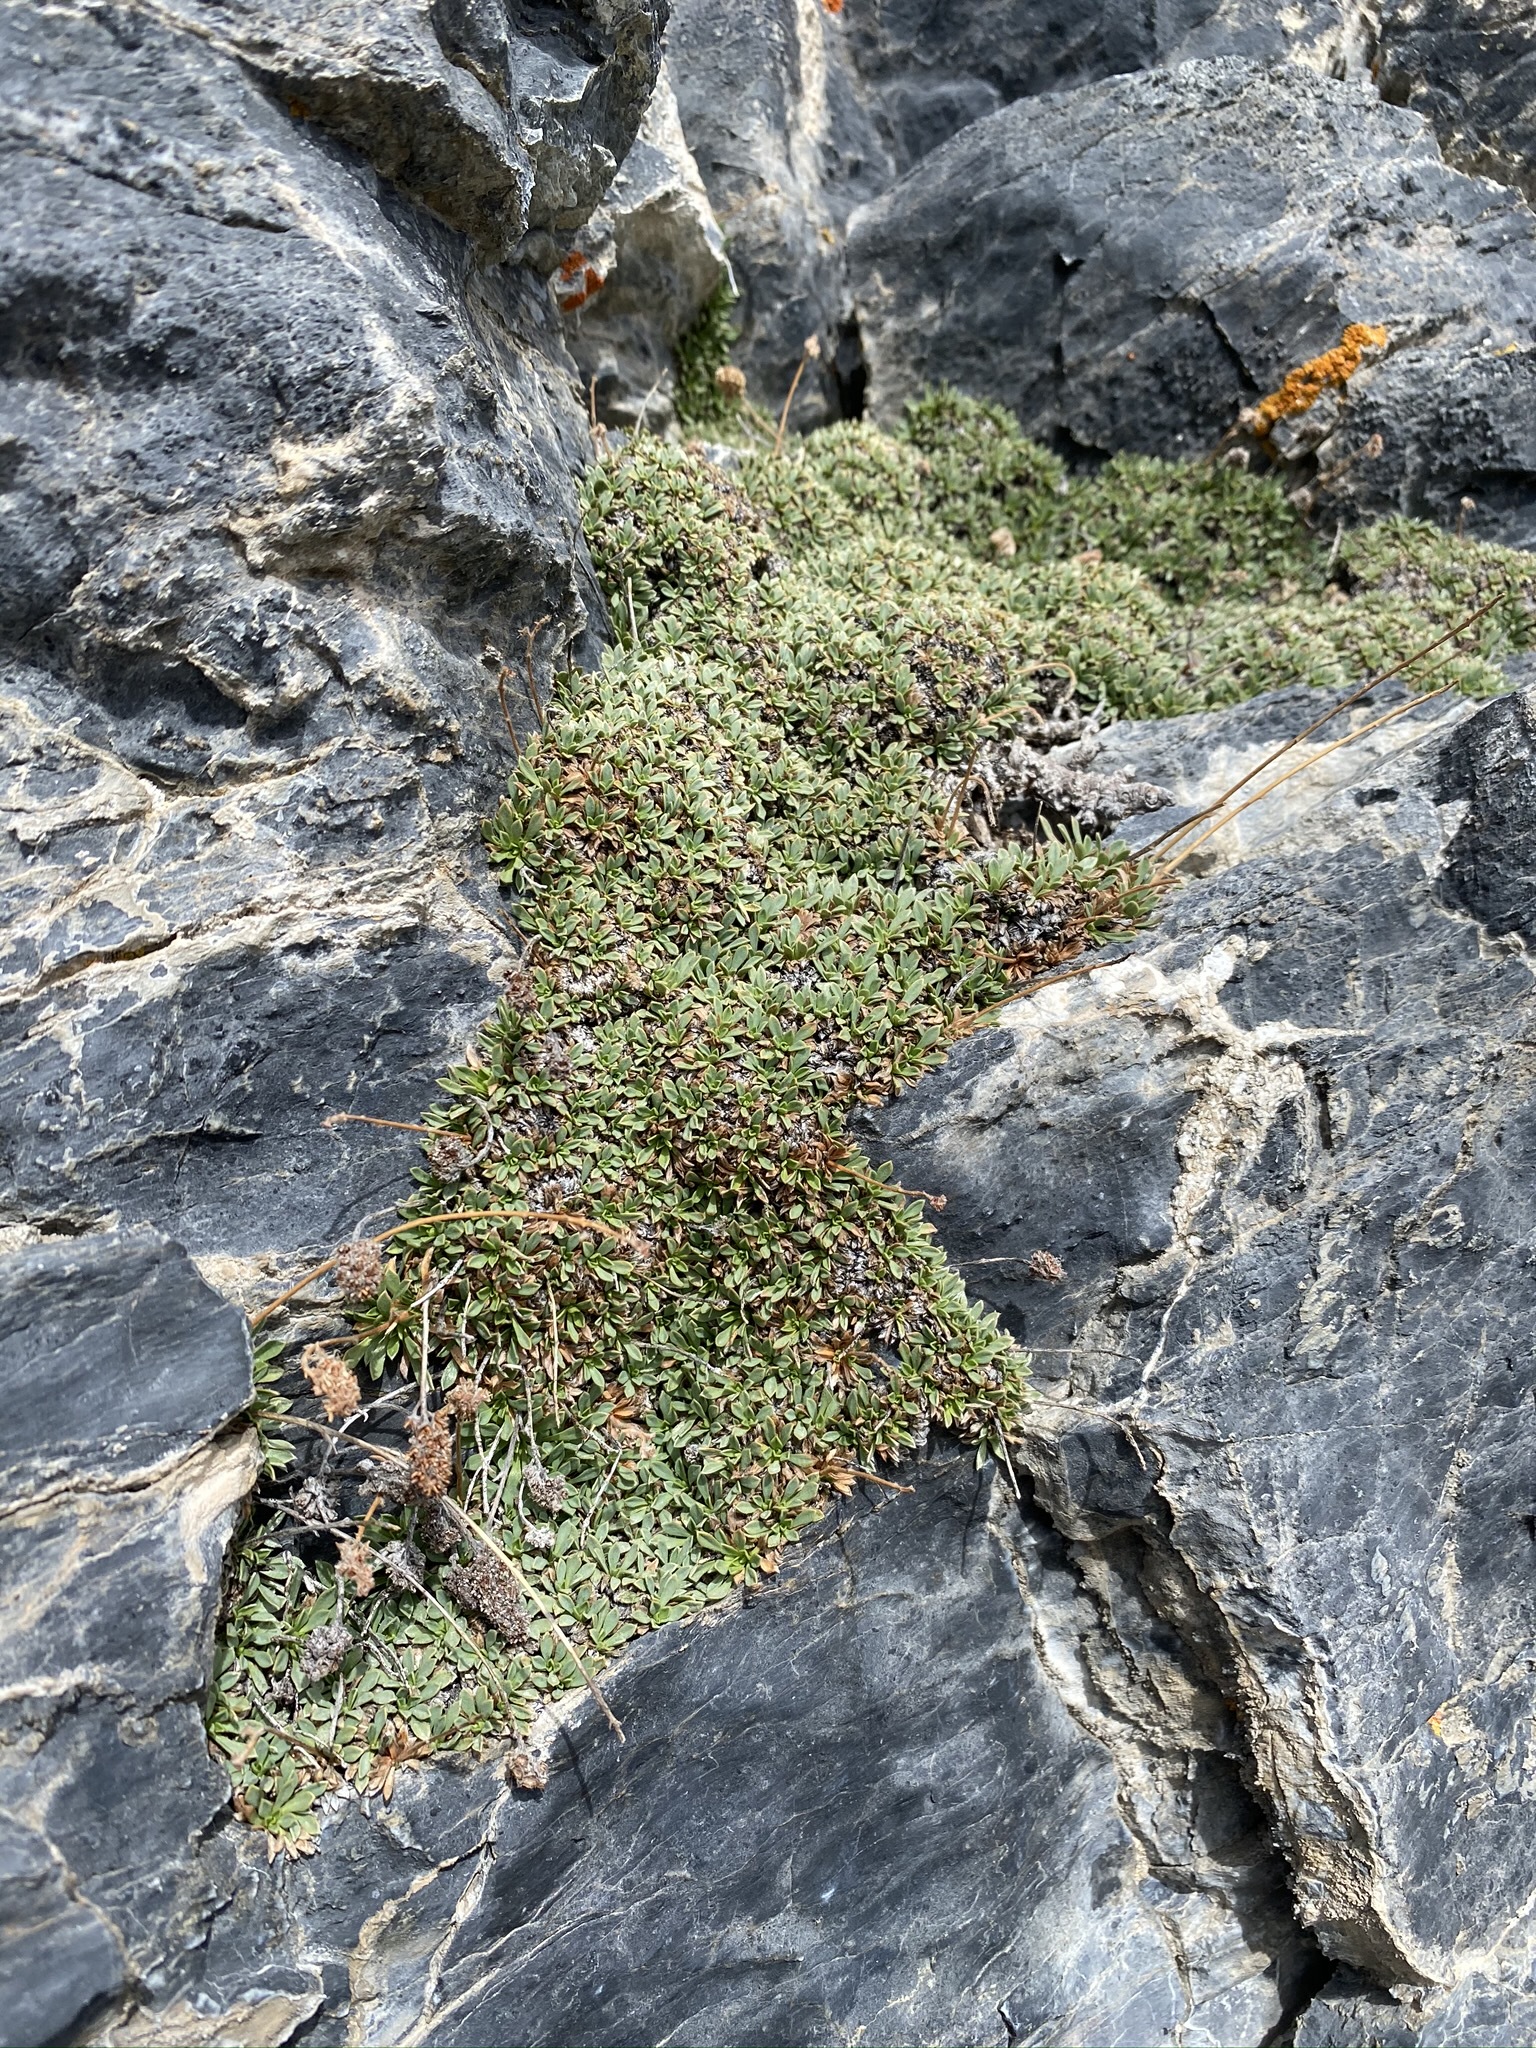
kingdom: Plantae
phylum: Tracheophyta
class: Magnoliopsida
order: Rosales
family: Rosaceae
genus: Petrophytum
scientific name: Petrophytum caespitosum
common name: Mat rockspirea
